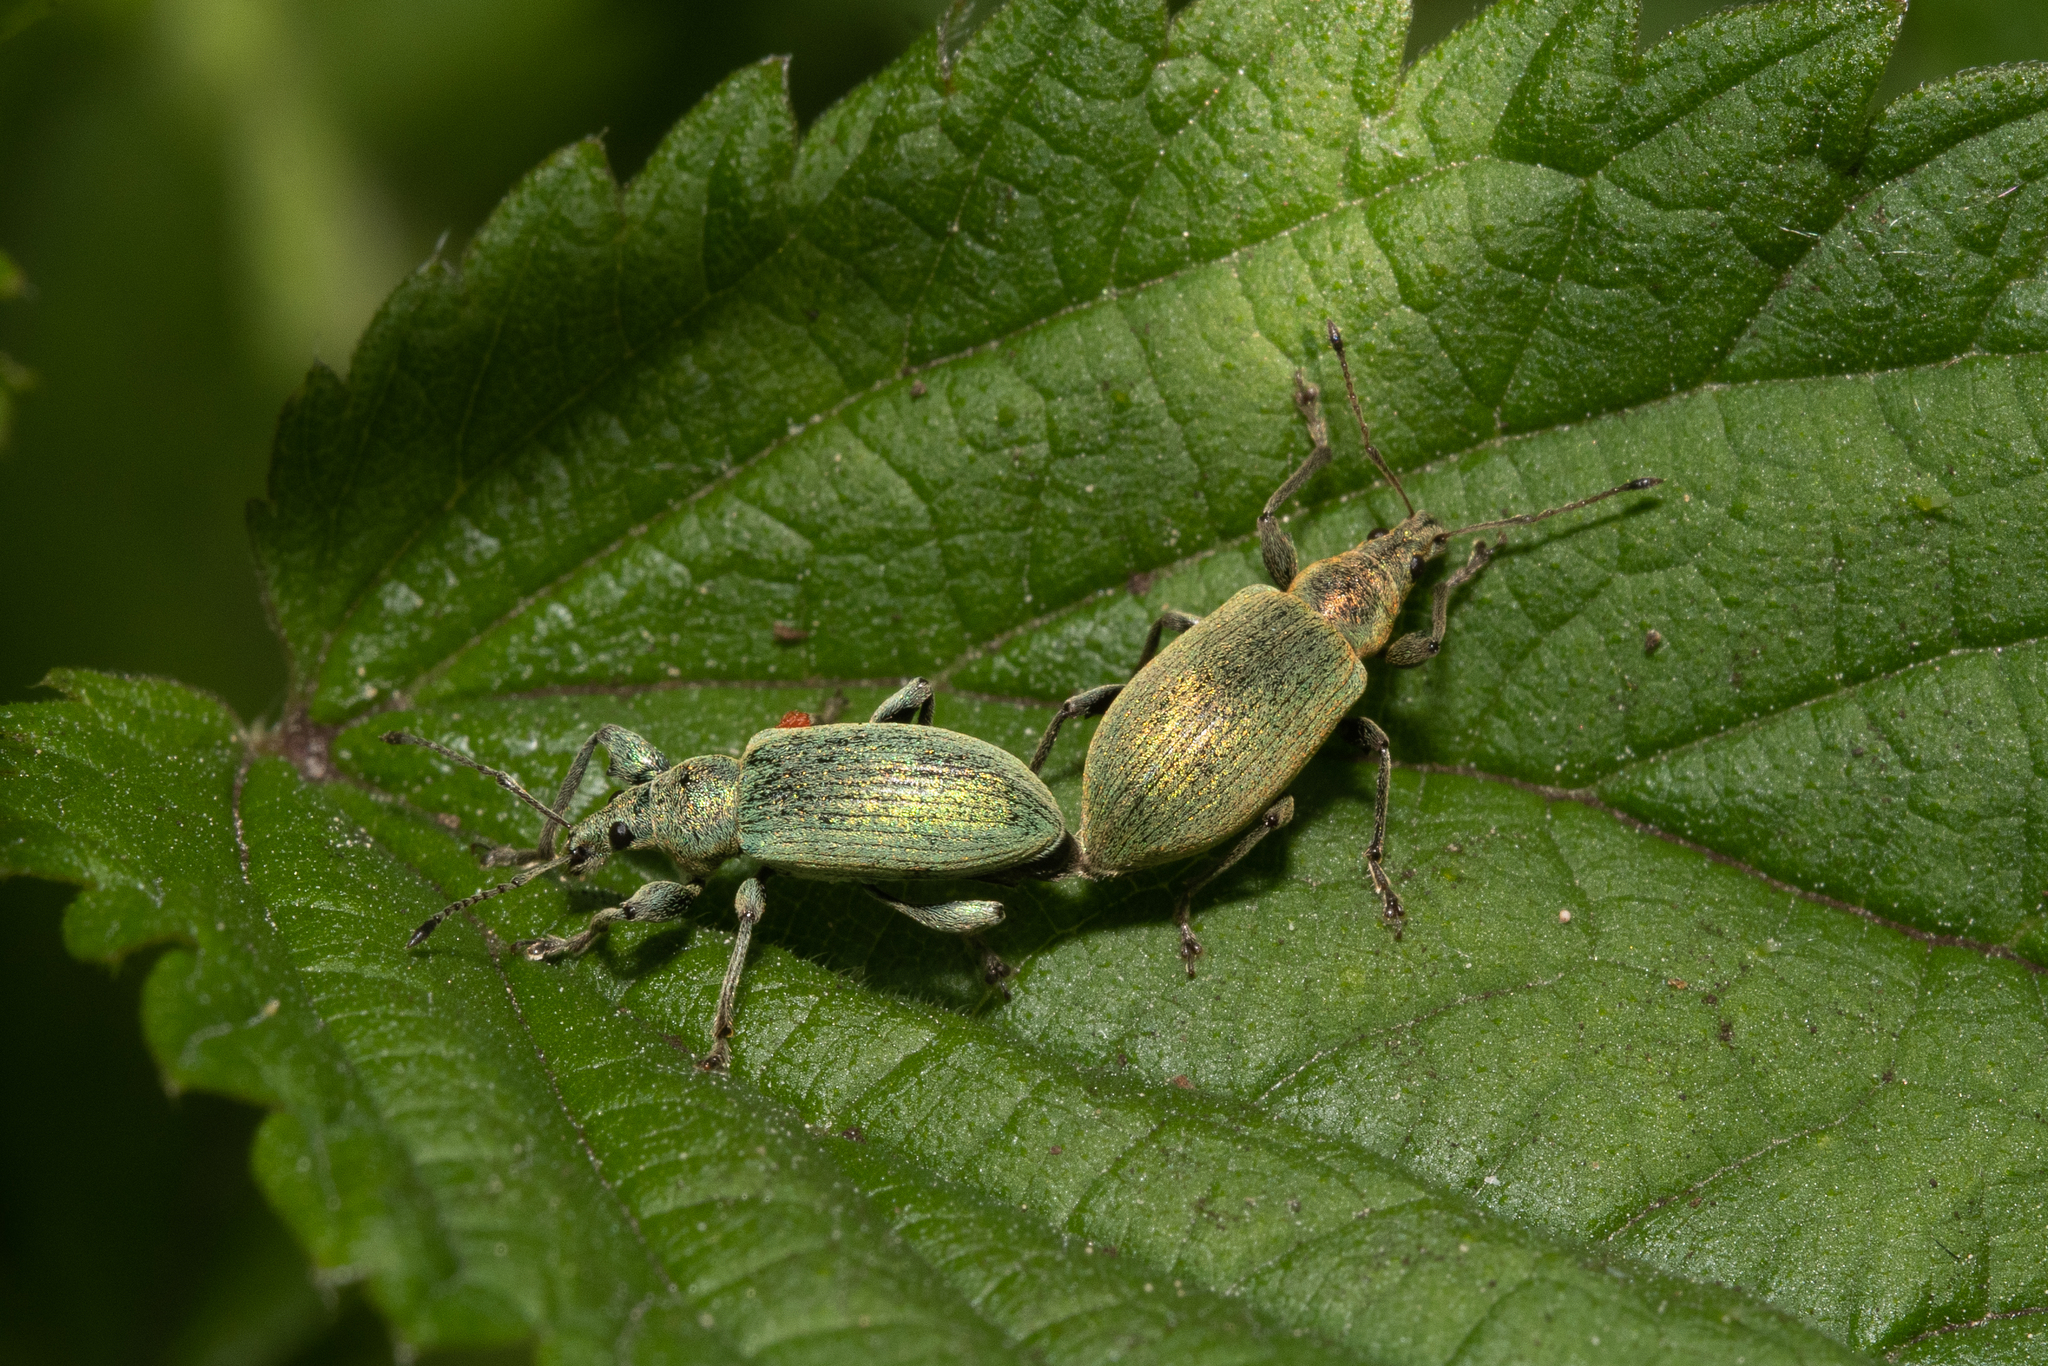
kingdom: Animalia
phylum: Arthropoda
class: Insecta
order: Coleoptera
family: Curculionidae
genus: Phyllobius
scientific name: Phyllobius pomaceus
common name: Green nettle weevil
